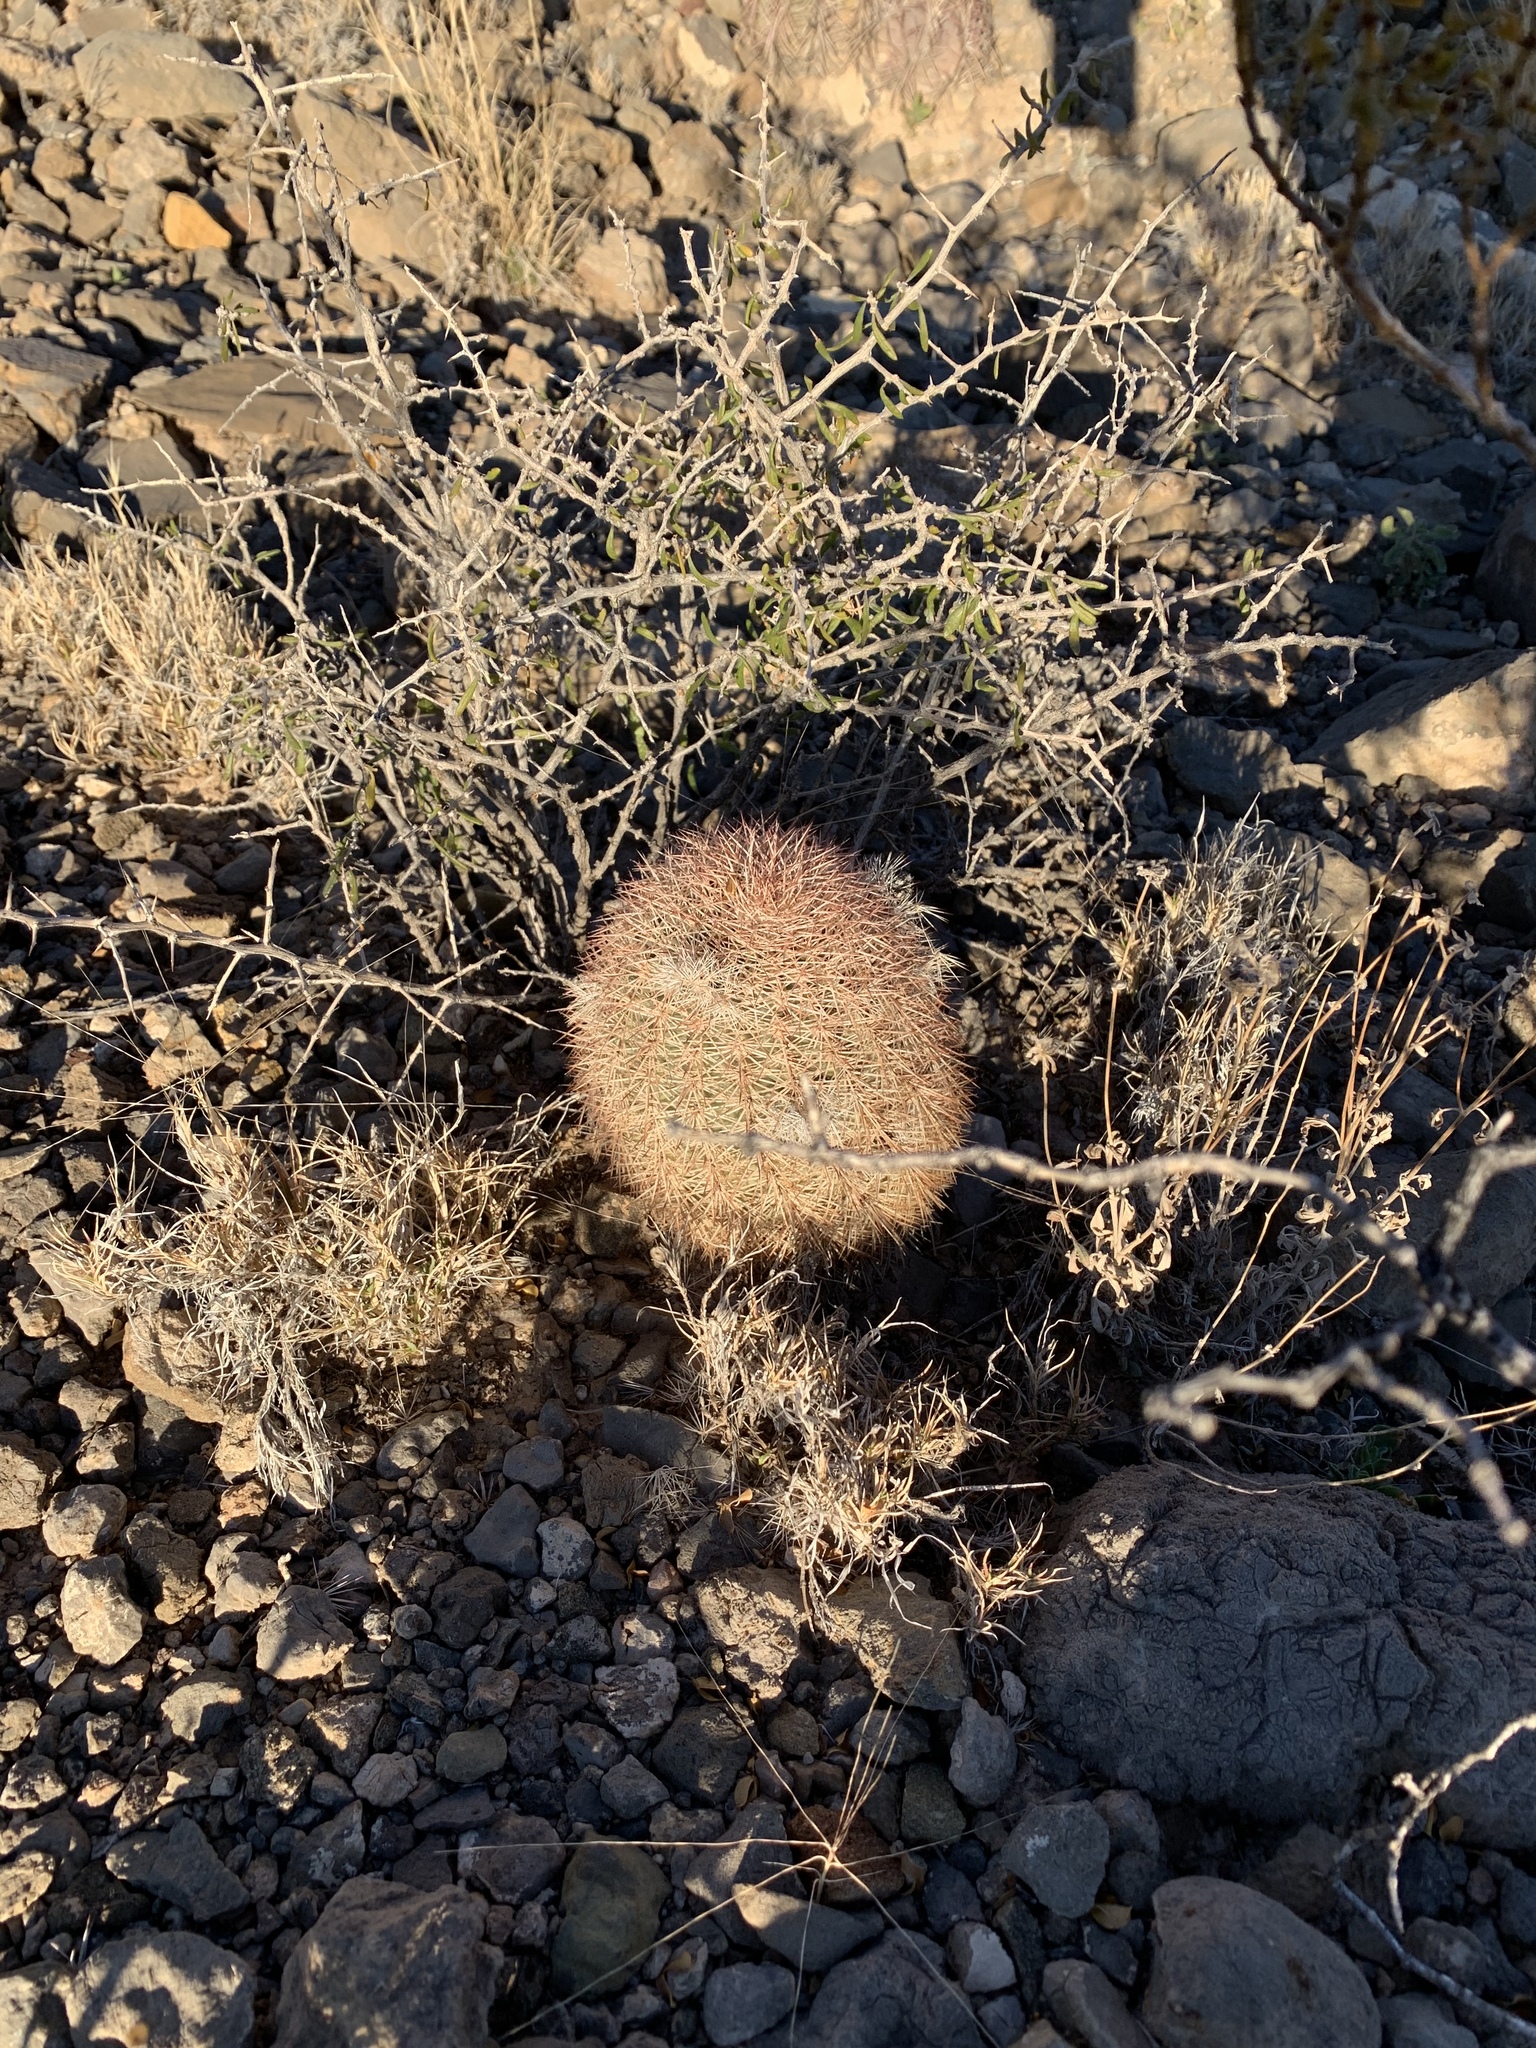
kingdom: Plantae
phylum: Tracheophyta
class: Magnoliopsida
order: Caryophyllales
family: Cactaceae
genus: Echinocereus
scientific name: Echinocereus dasyacanthus
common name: Spiny hedgehog cactus
